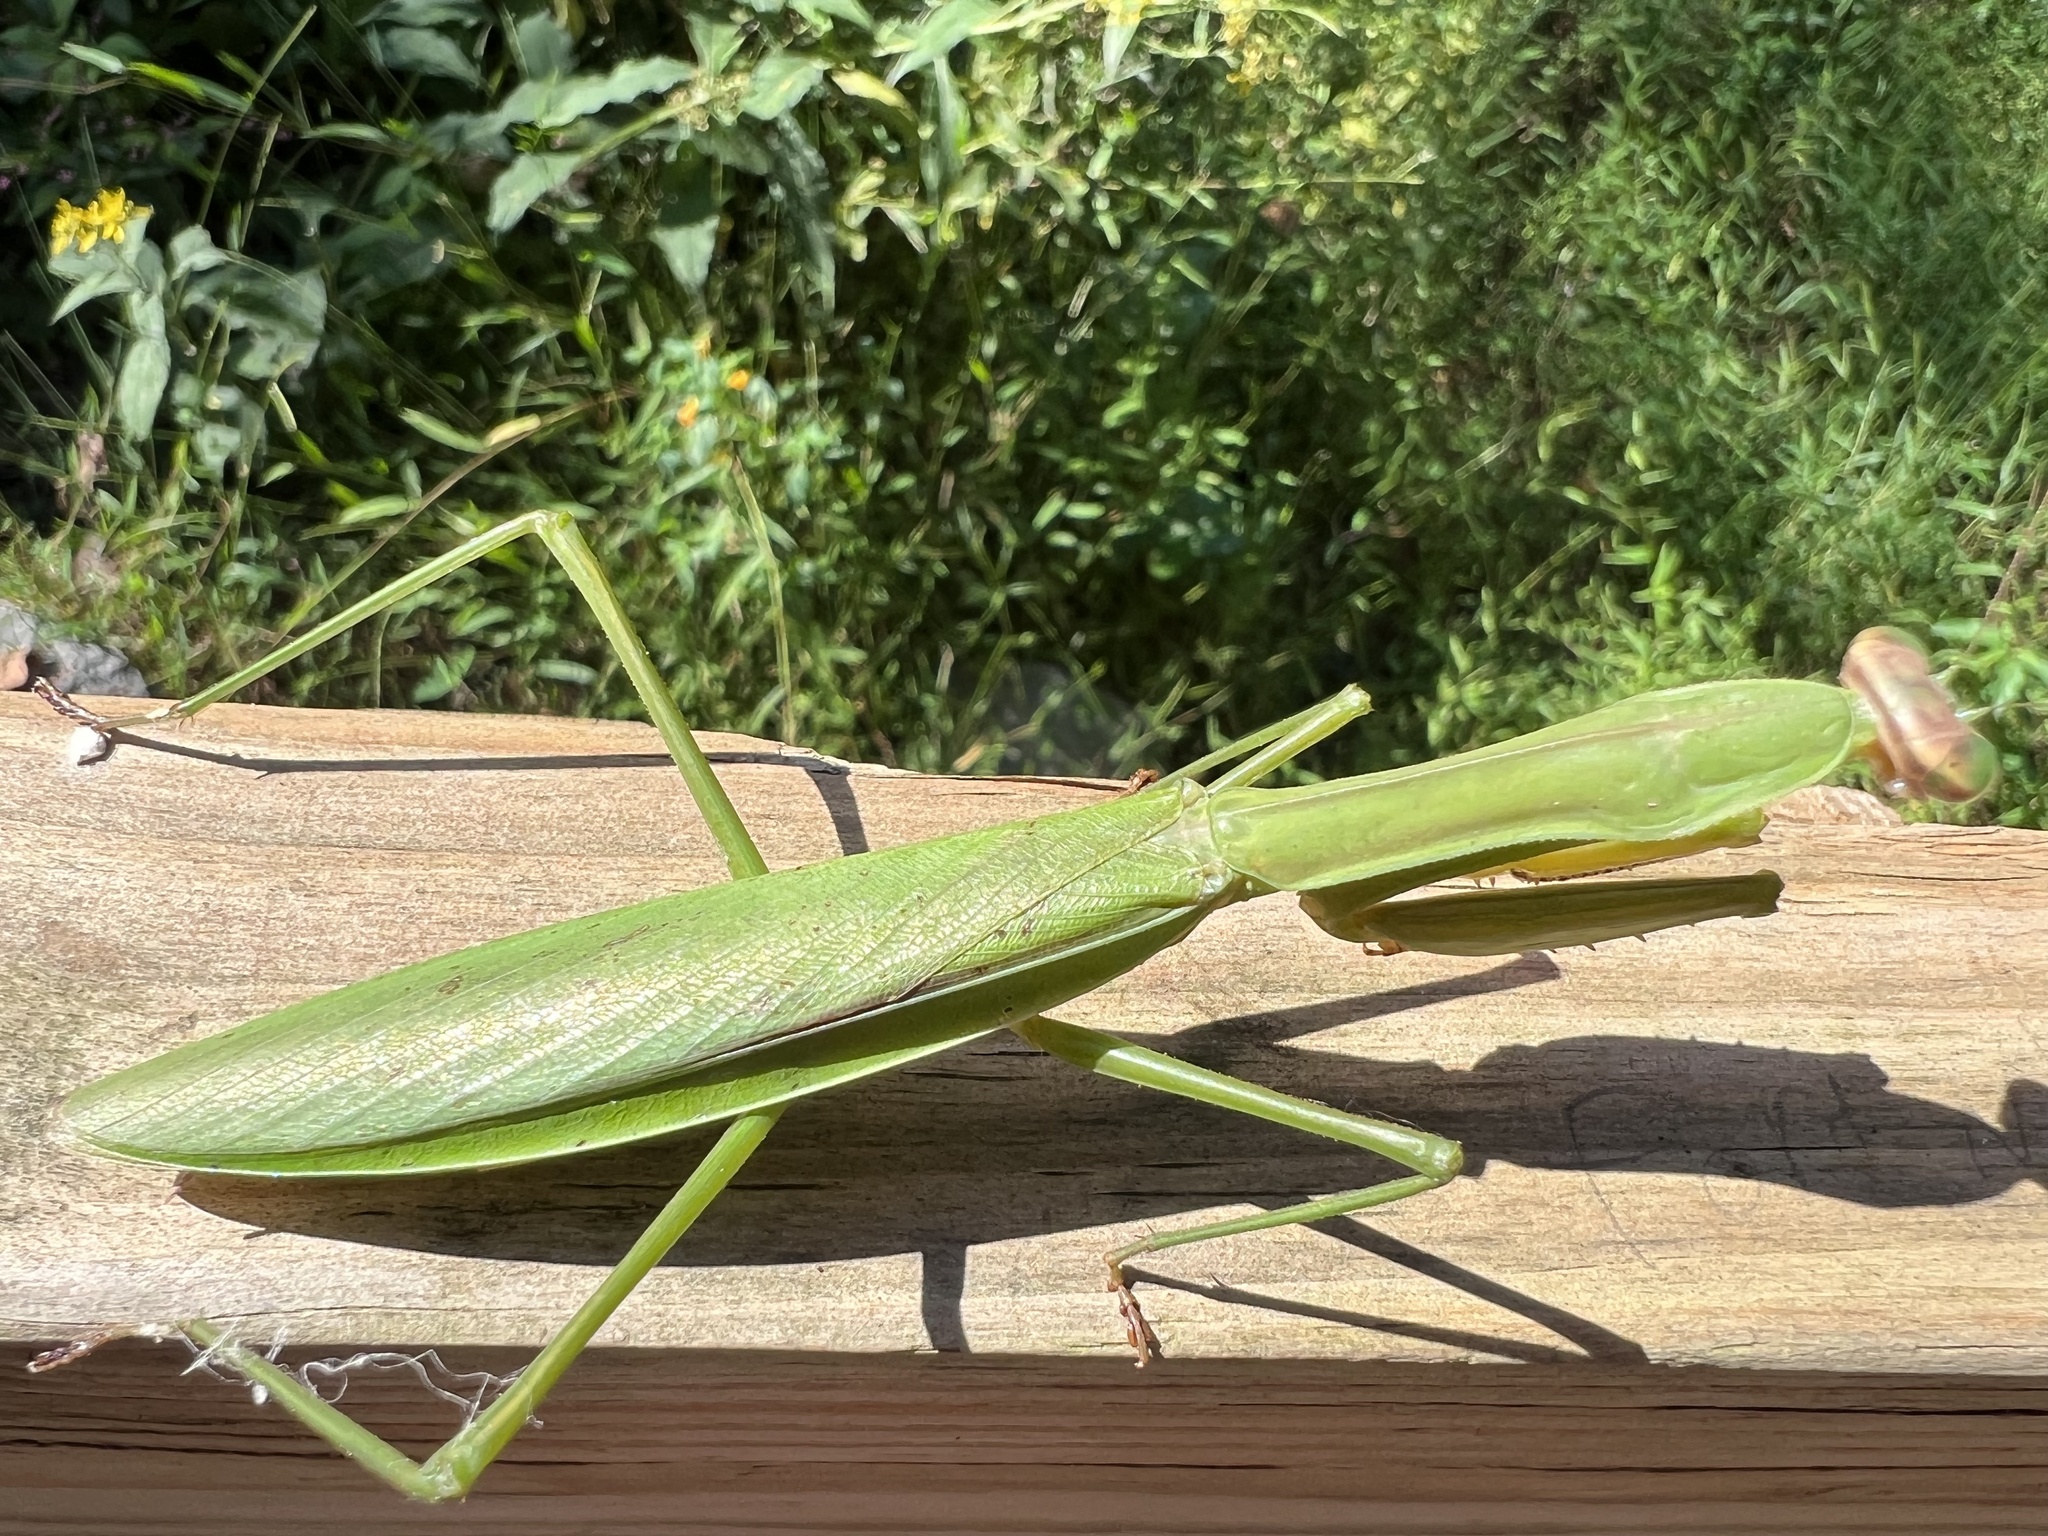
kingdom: Animalia
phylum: Arthropoda
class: Insecta
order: Mantodea
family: Mantidae
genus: Tenodera
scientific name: Tenodera sinensis
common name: Chinese mantis
